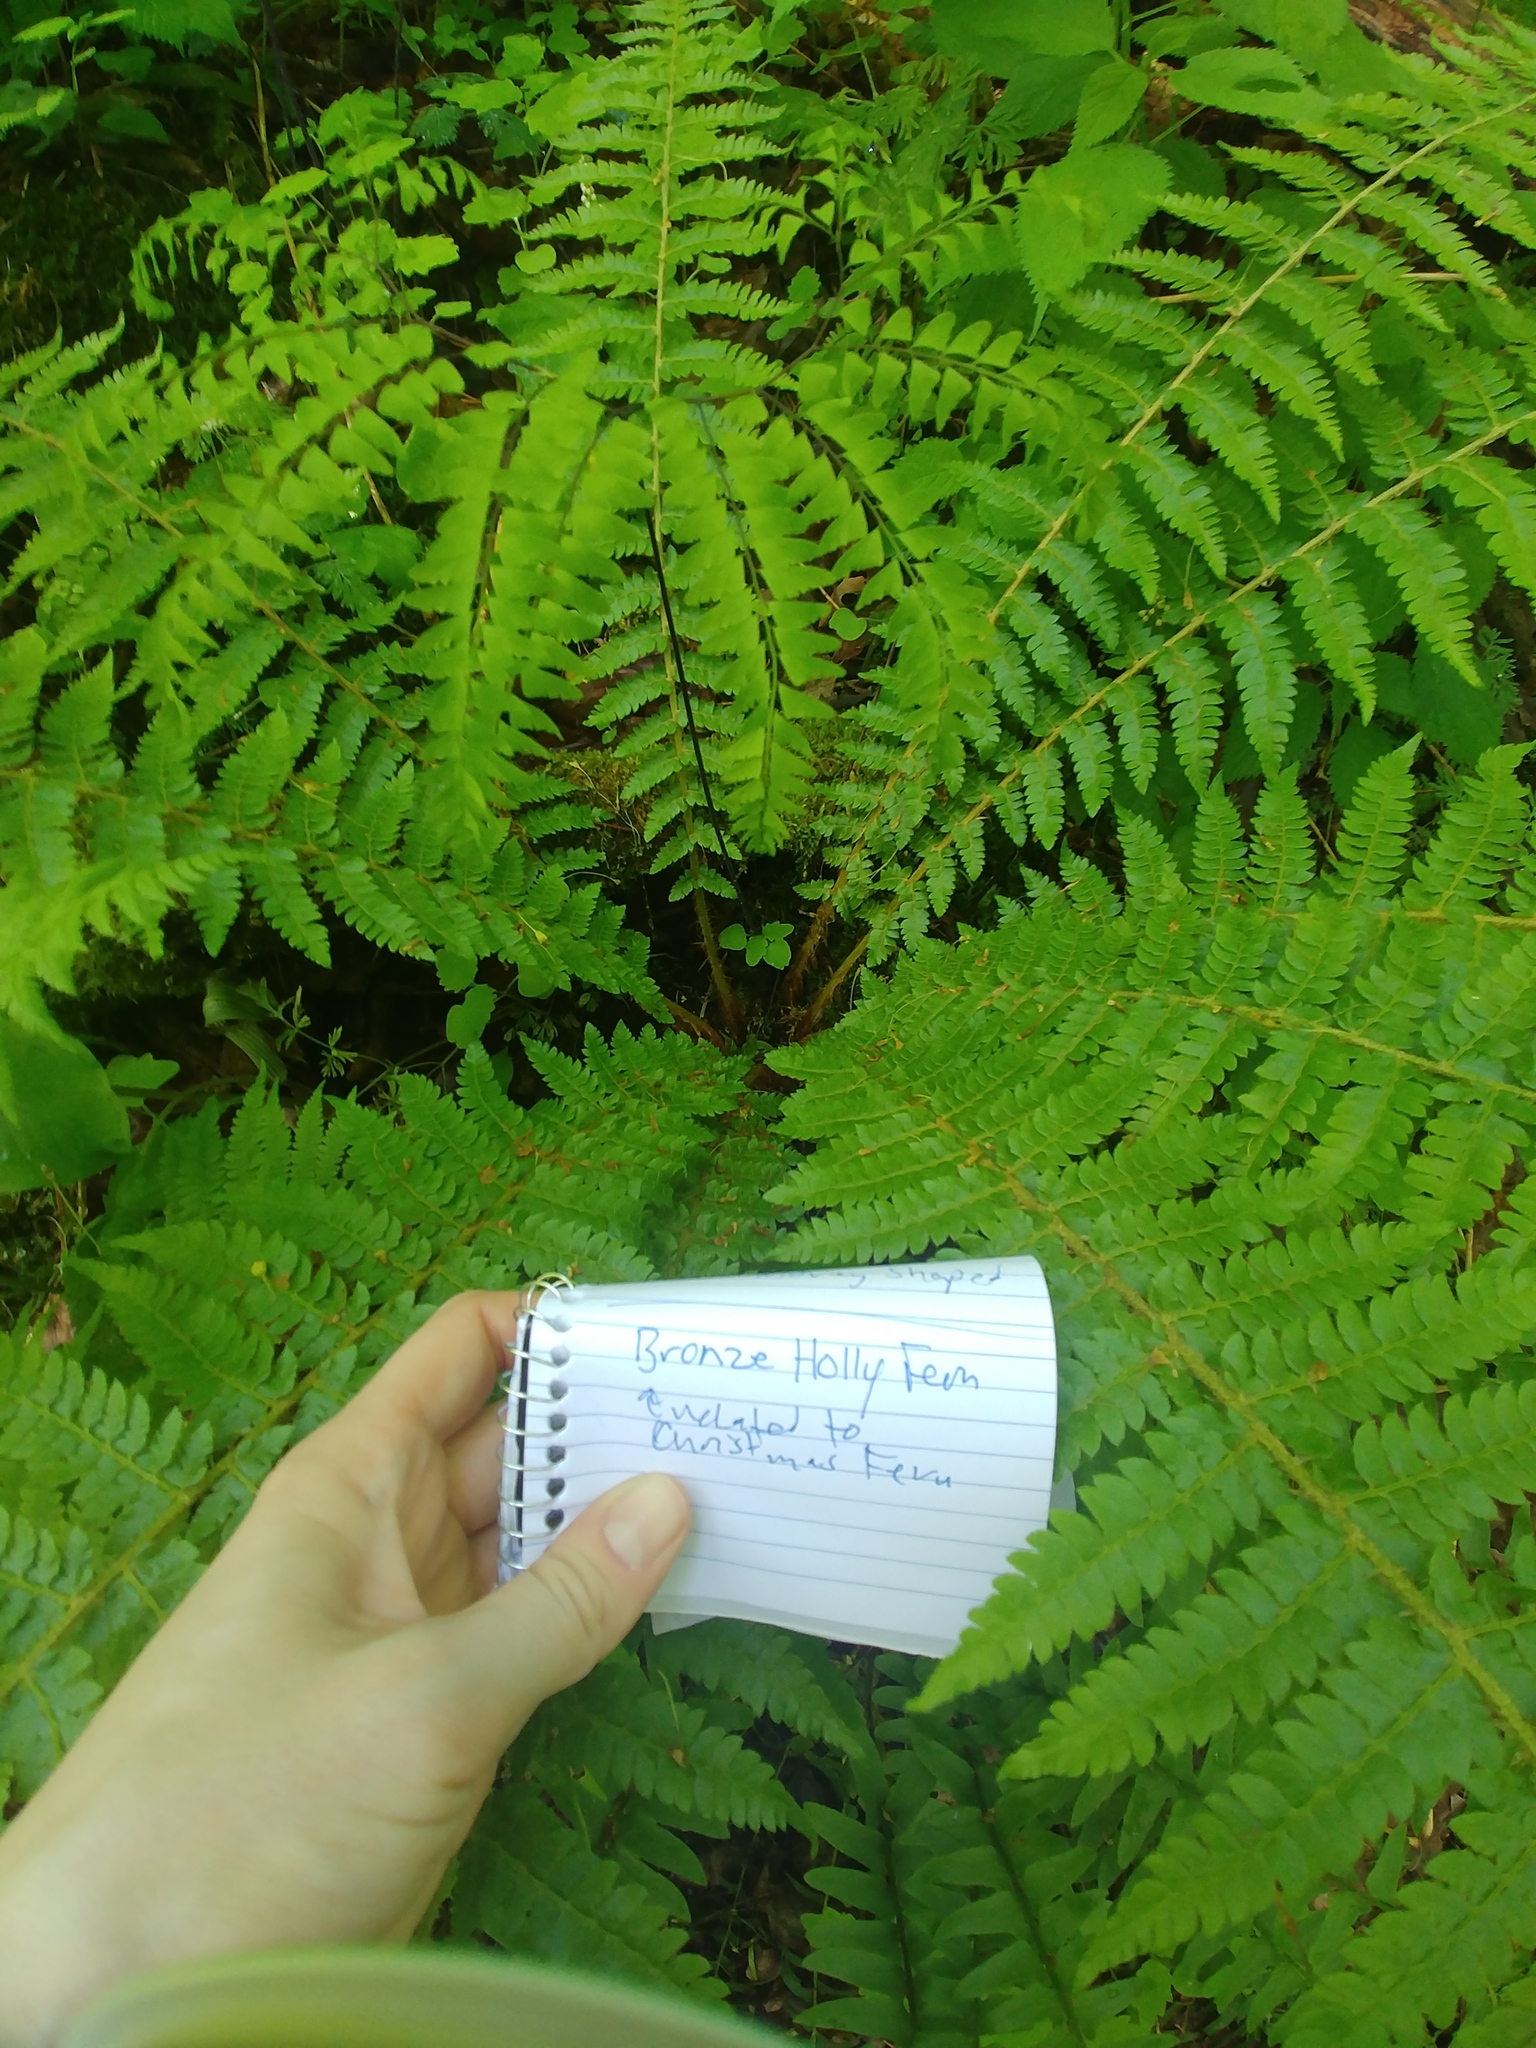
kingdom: Plantae
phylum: Tracheophyta
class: Polypodiopsida
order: Polypodiales
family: Dryopteridaceae
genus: Polystichum
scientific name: Polystichum braunii
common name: Braun's holly fern
